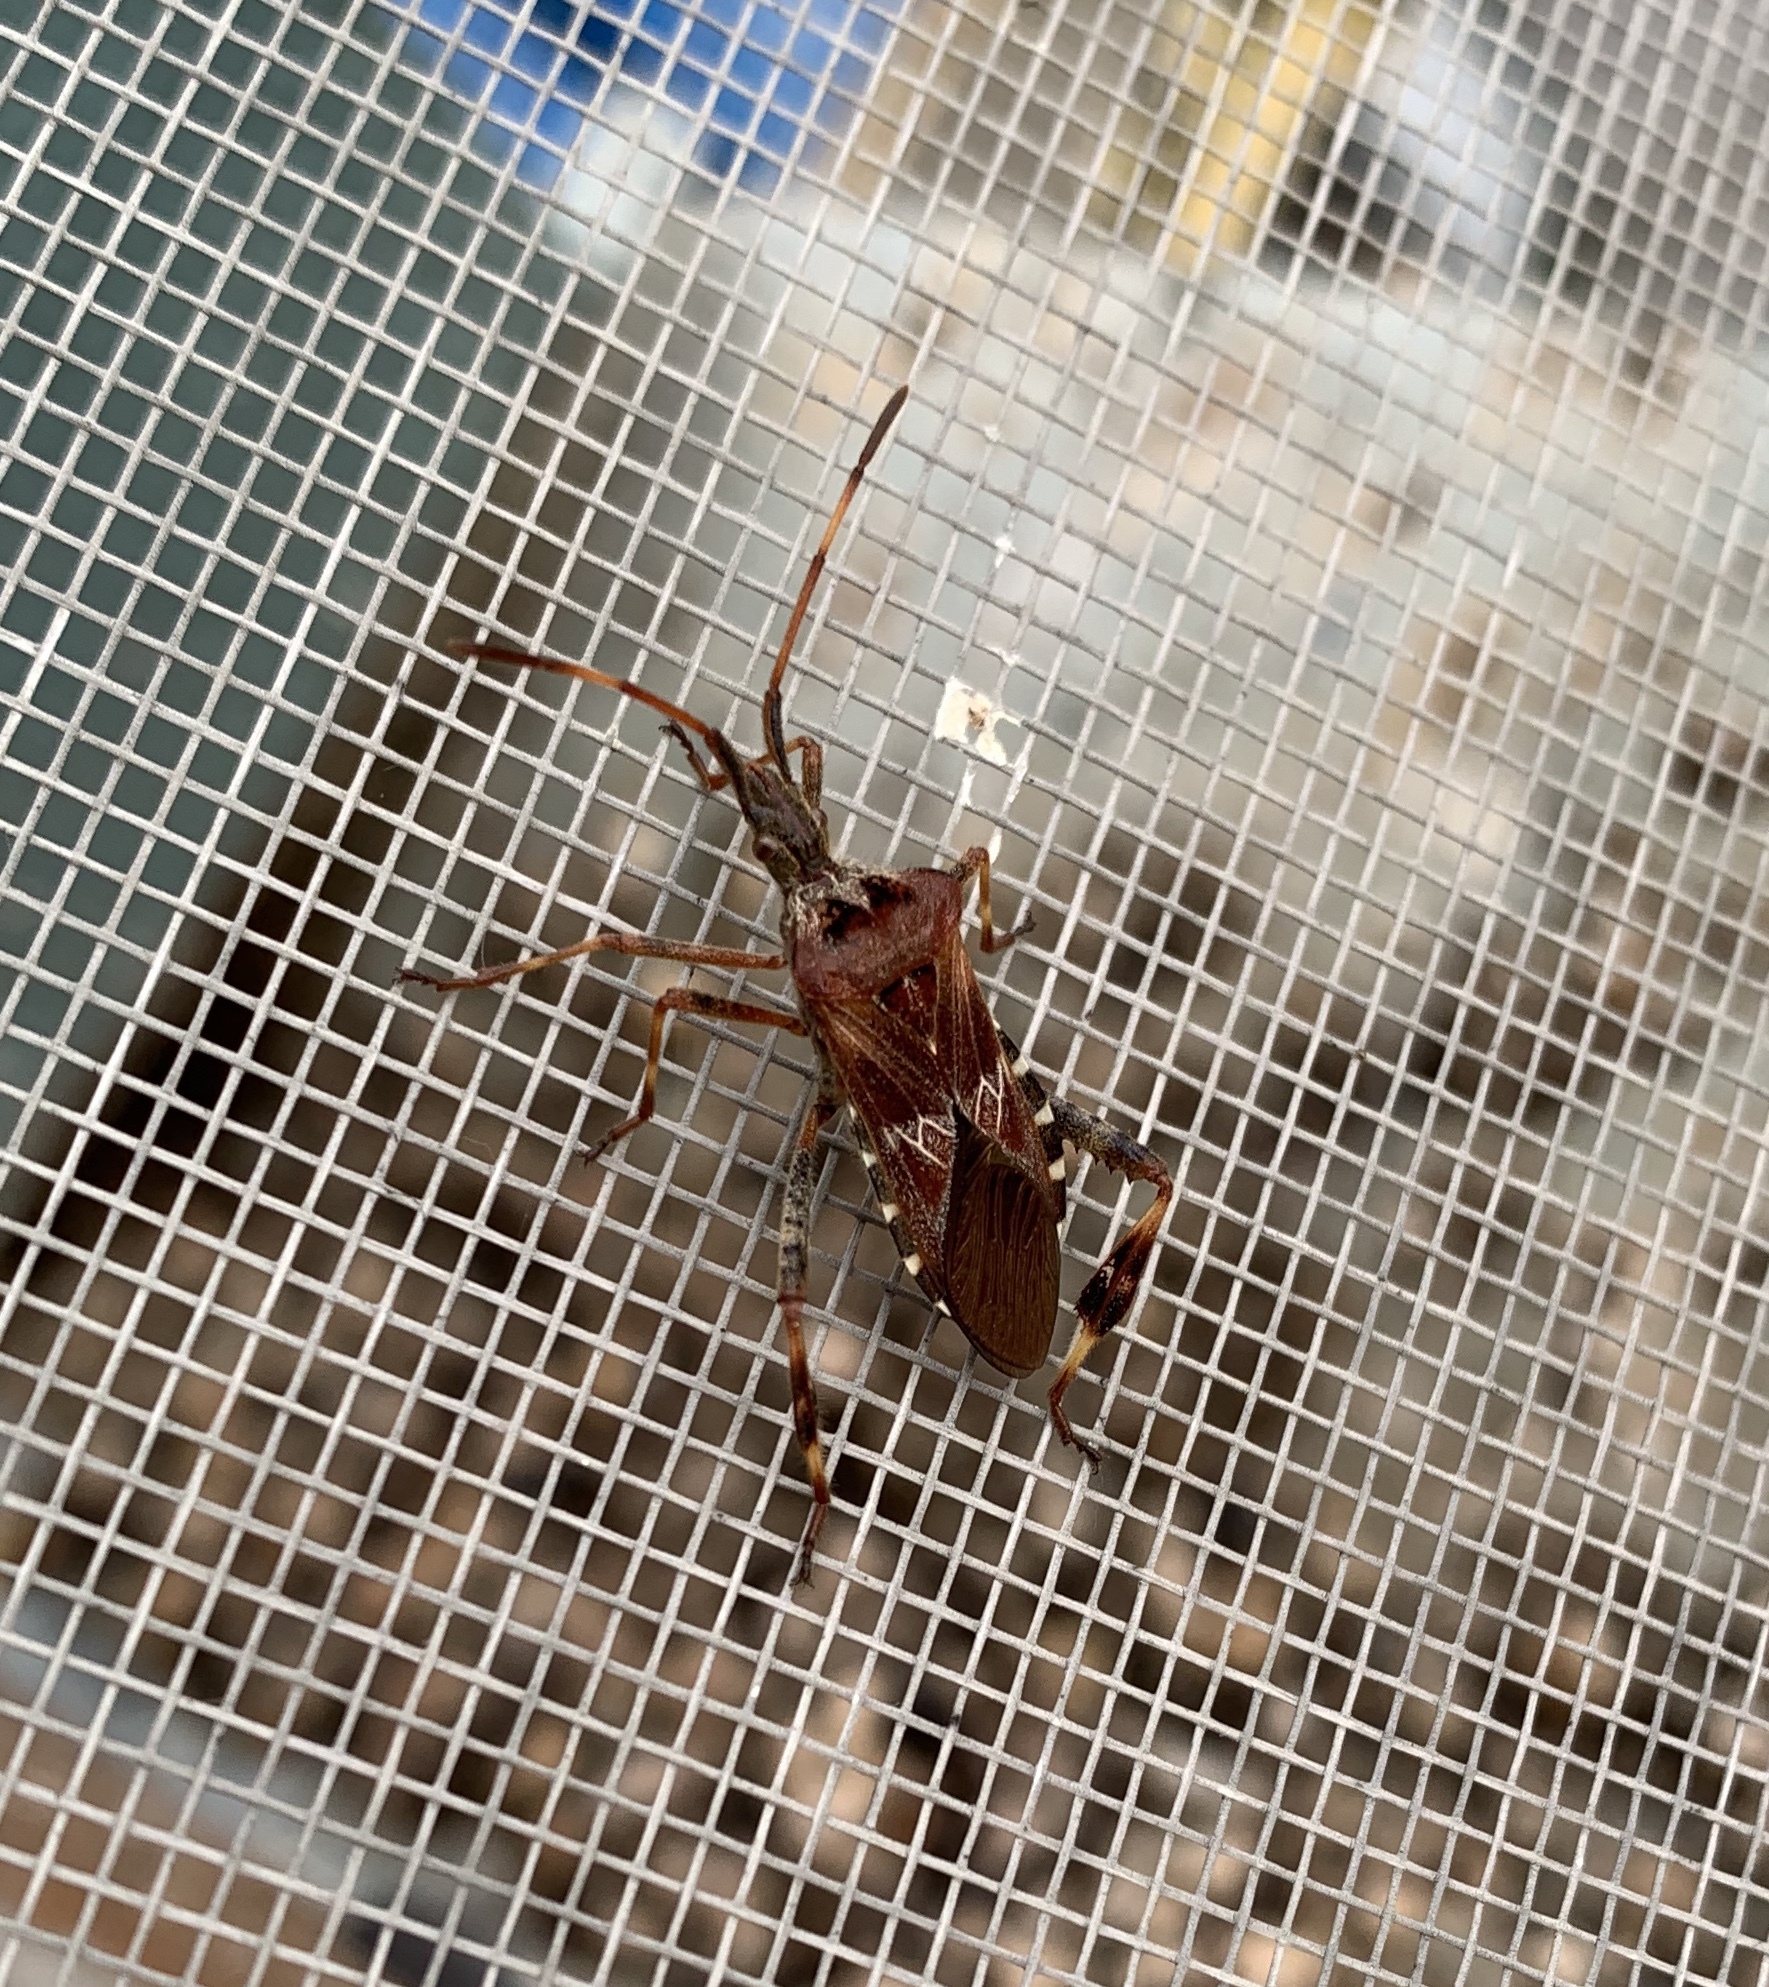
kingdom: Animalia
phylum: Arthropoda
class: Insecta
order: Hemiptera
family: Coreidae
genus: Leptoglossus
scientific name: Leptoglossus occidentalis
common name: Western conifer-seed bug
